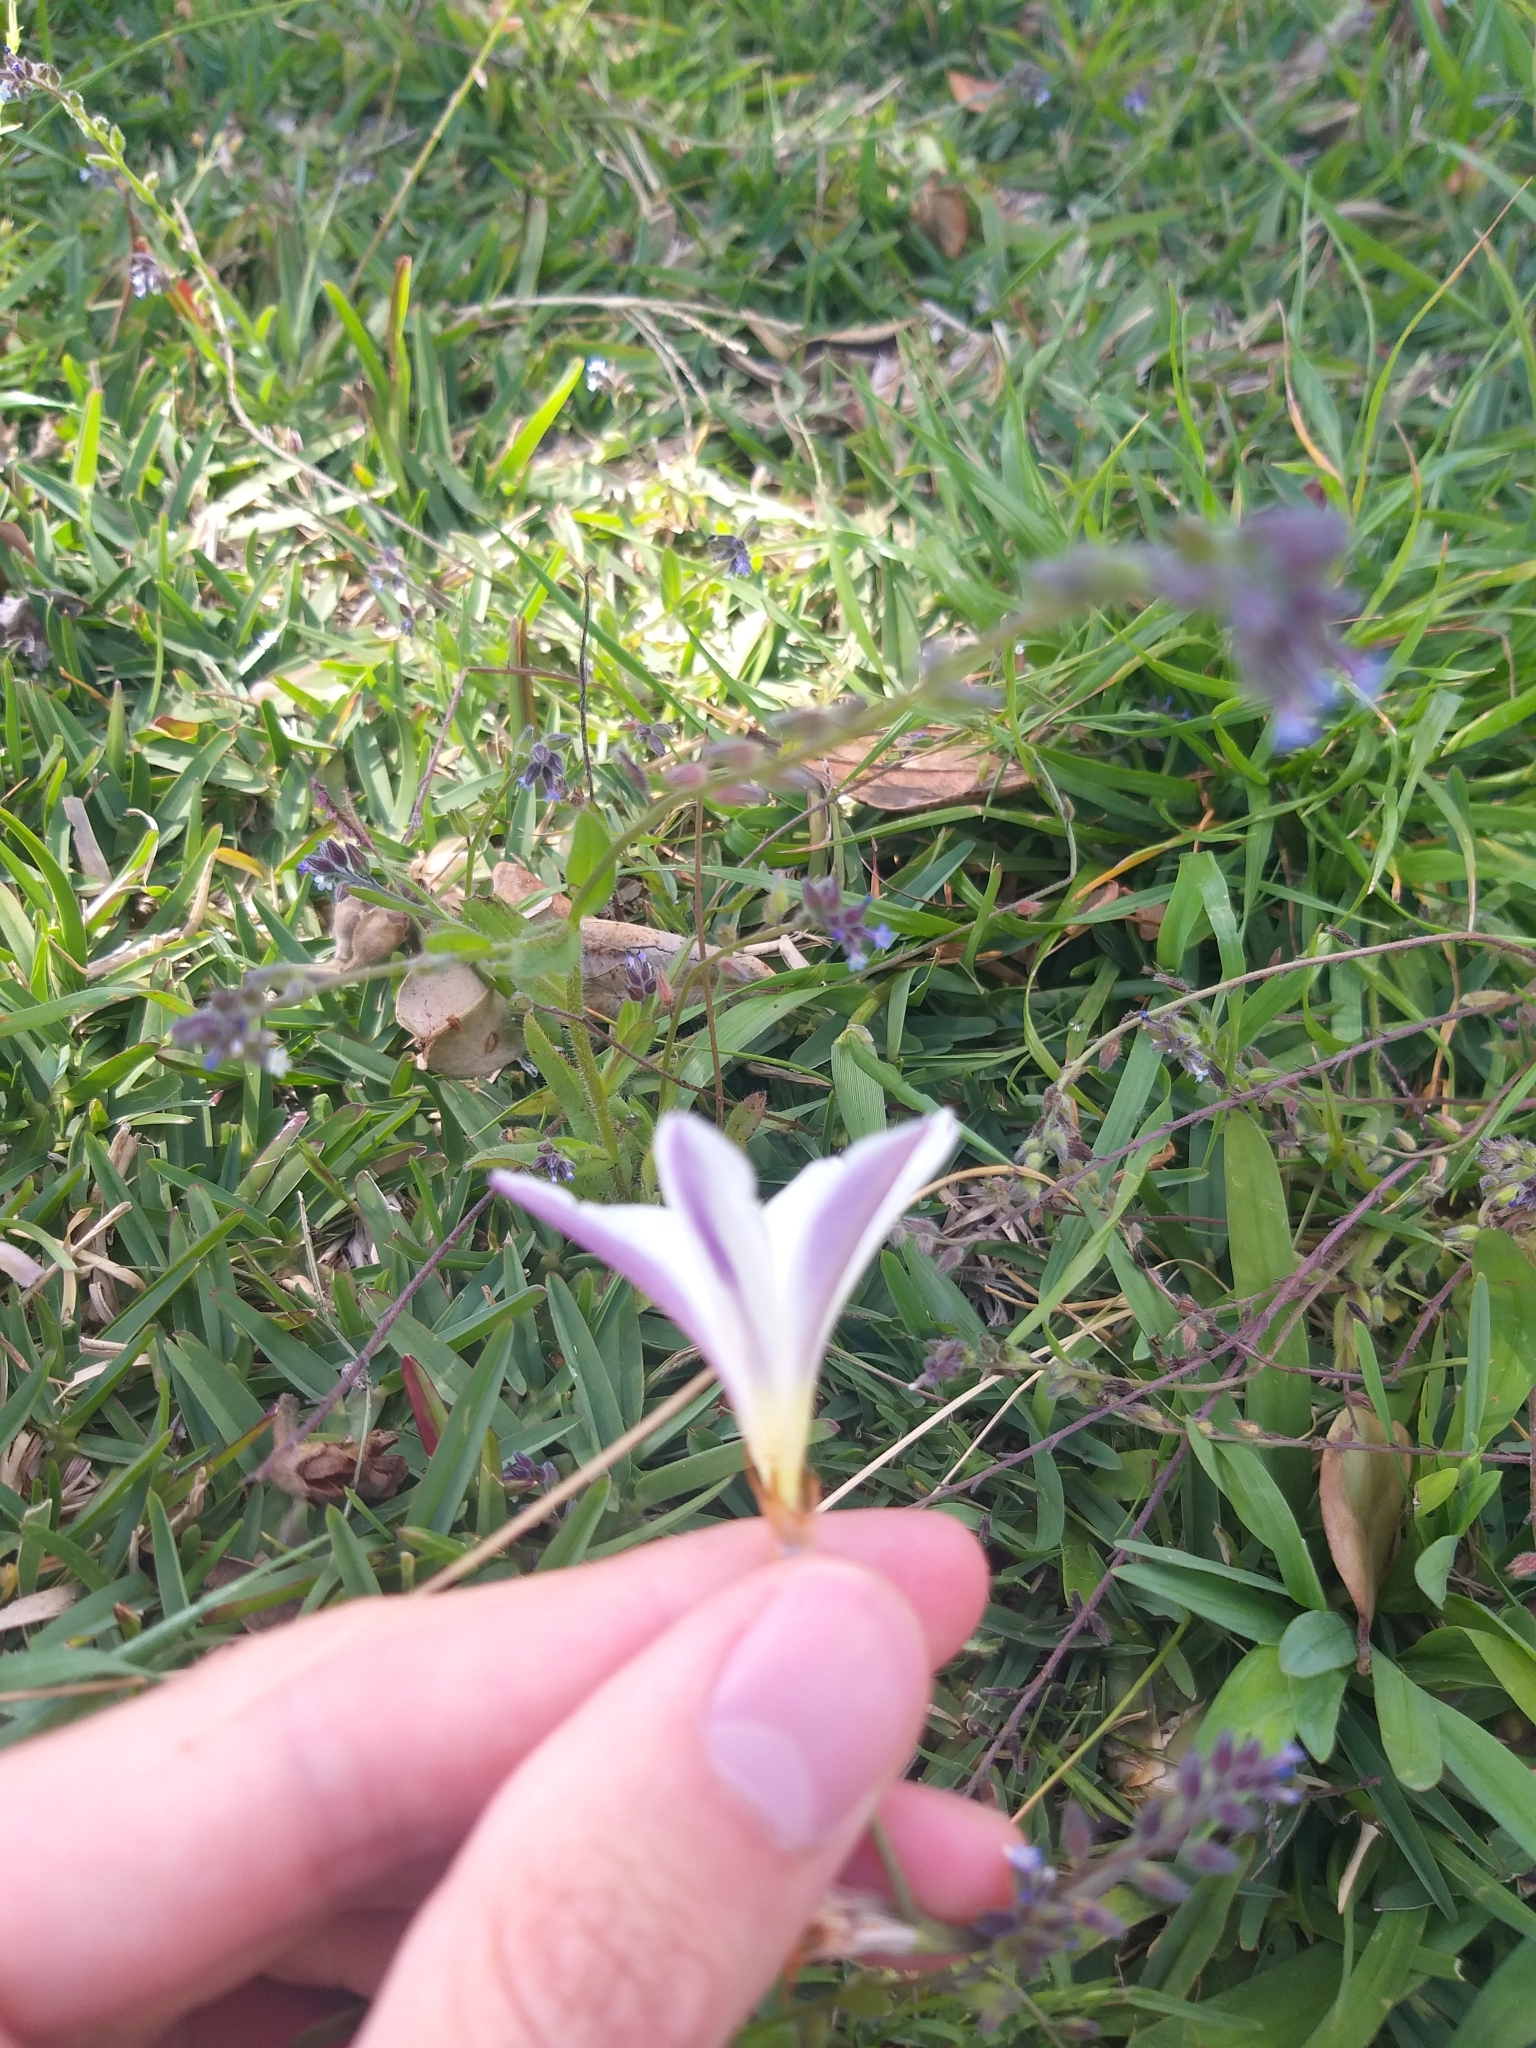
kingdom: Plantae
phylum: Tracheophyta
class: Liliopsida
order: Asparagales
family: Iridaceae
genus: Sparaxis
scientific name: Sparaxis bulbifera
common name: Harlequin-flower
